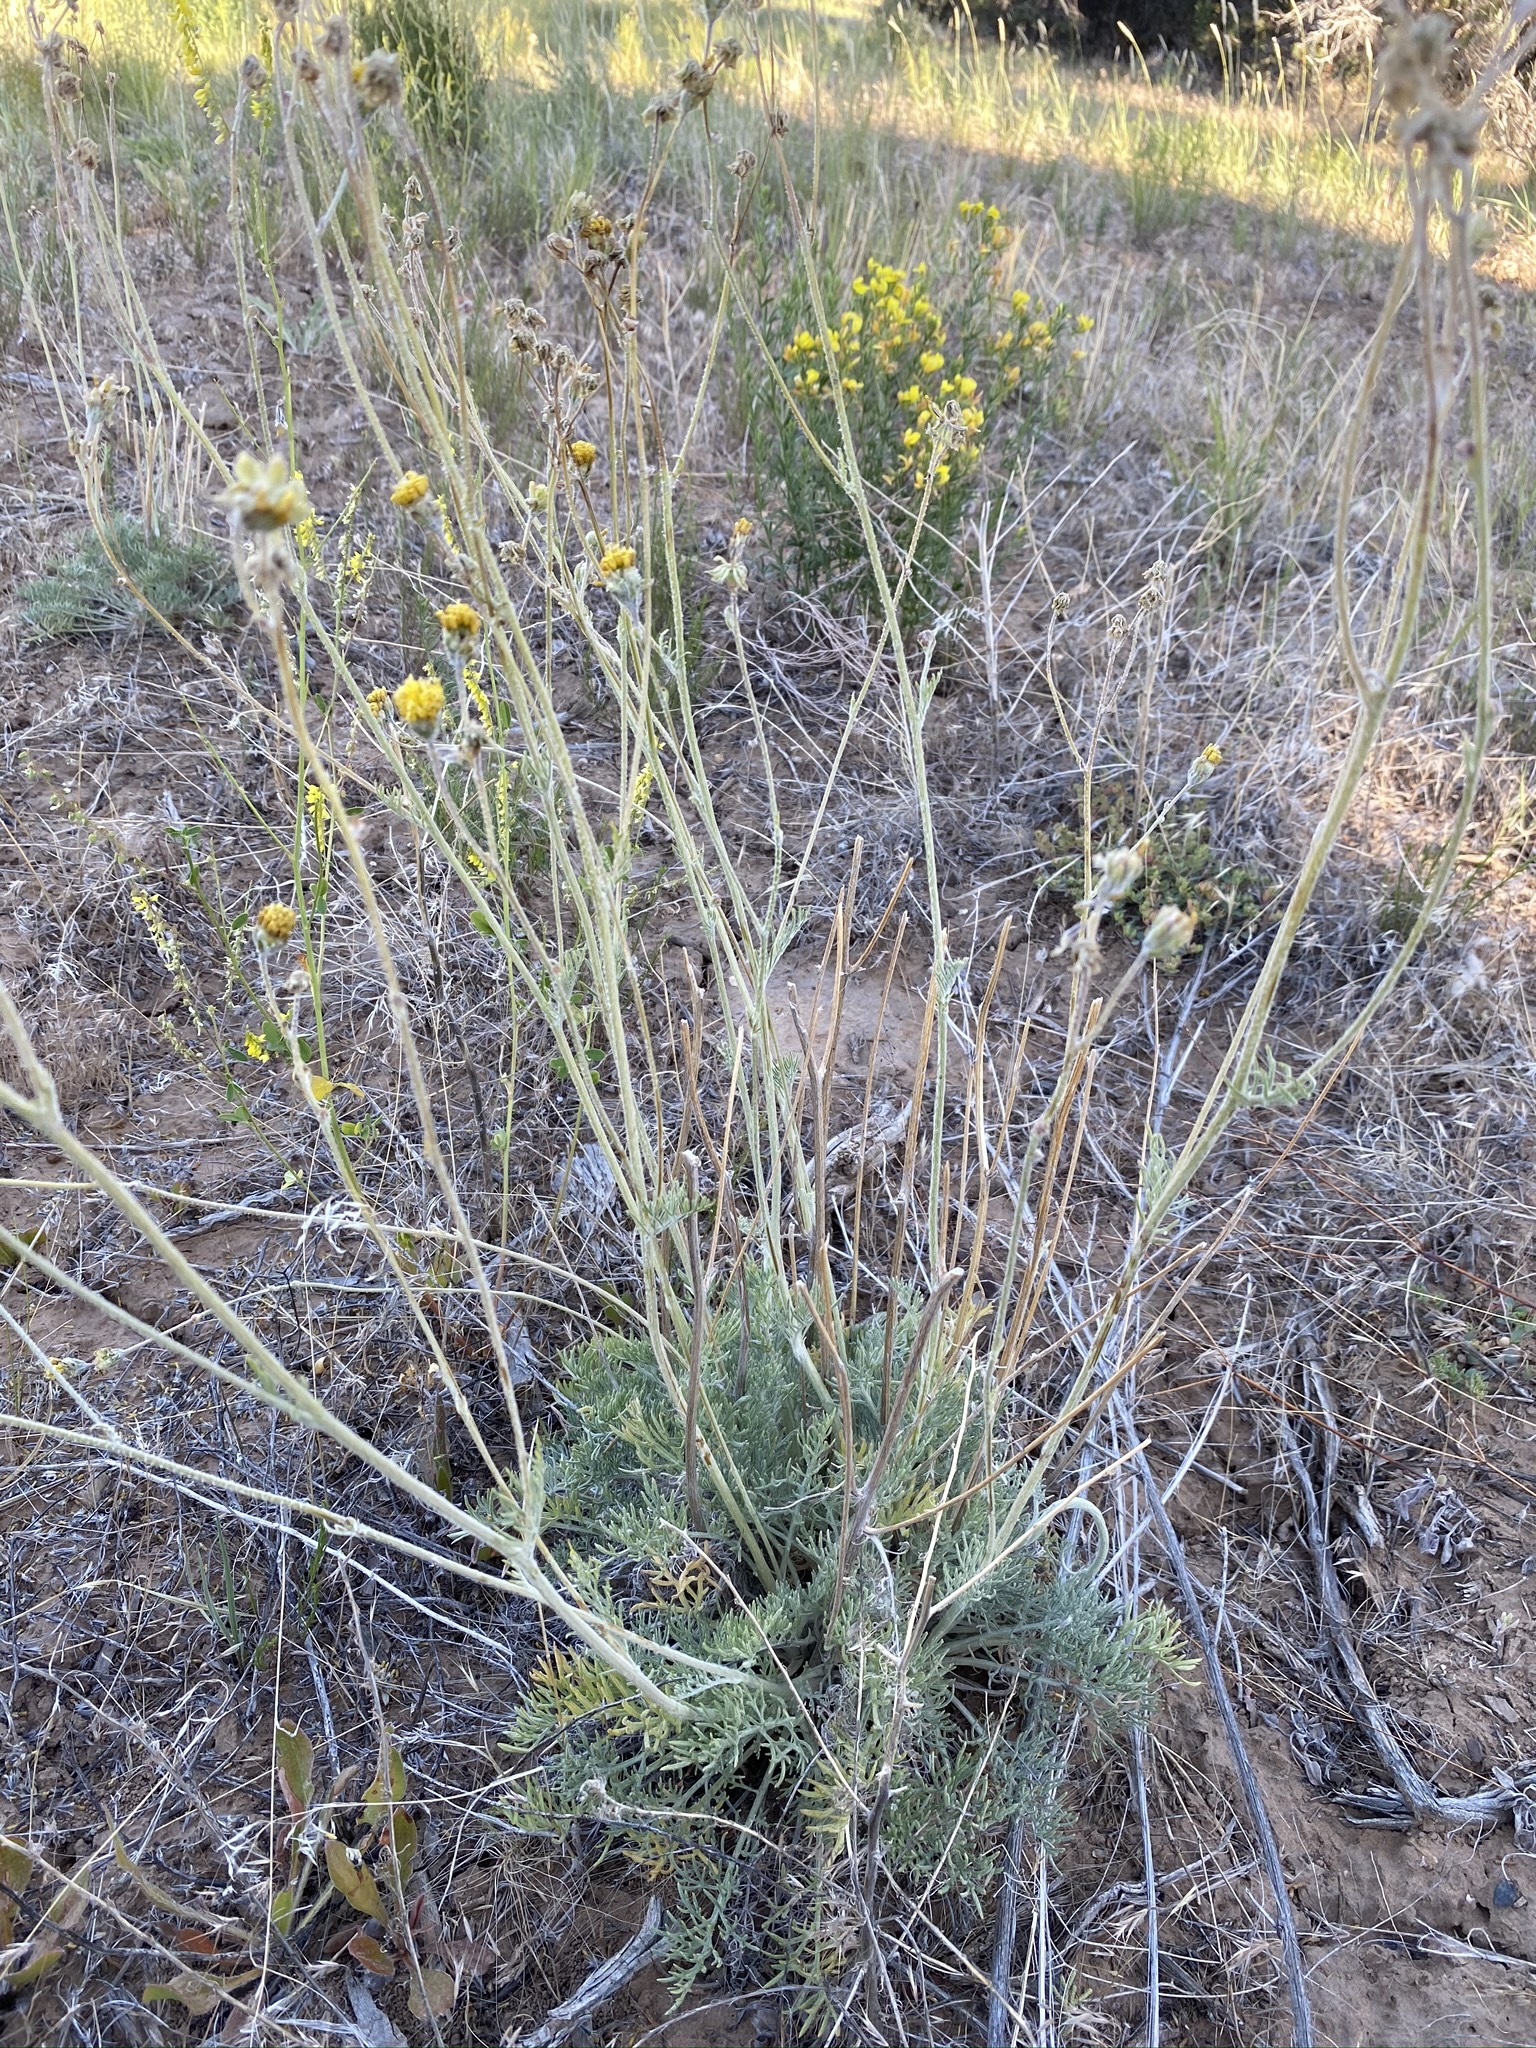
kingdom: Plantae
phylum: Tracheophyta
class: Magnoliopsida
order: Asterales
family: Asteraceae
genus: Hymenopappus
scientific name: Hymenopappus filifolius
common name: Columbia cutleaf
